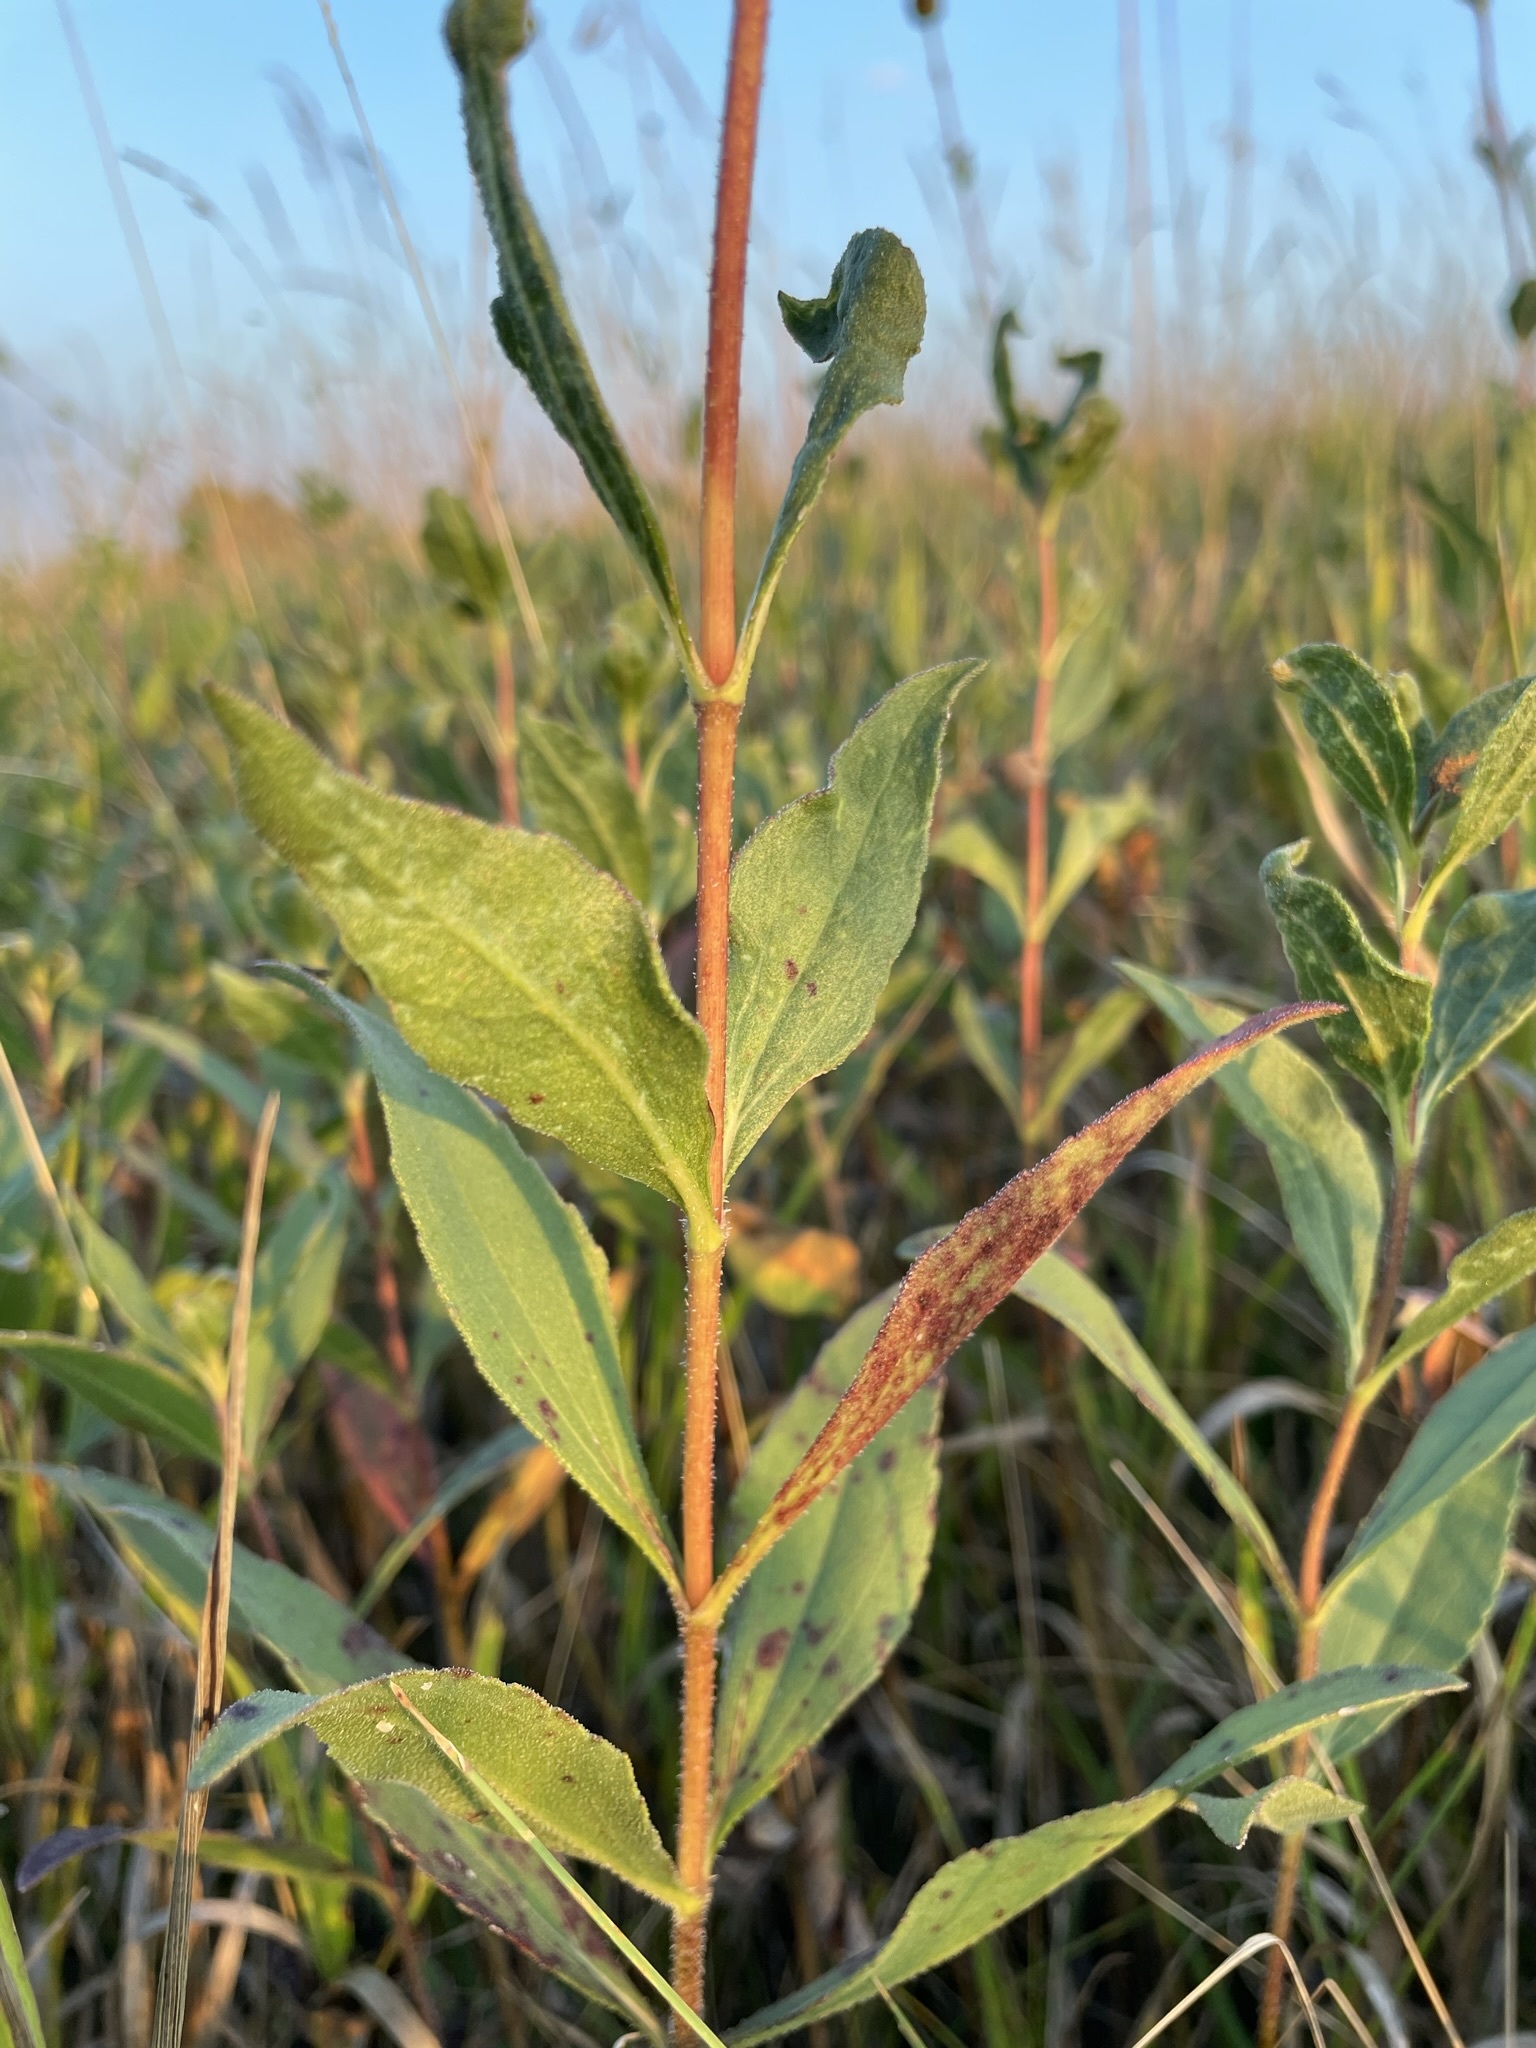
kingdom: Plantae
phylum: Tracheophyta
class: Magnoliopsida
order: Asterales
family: Asteraceae
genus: Helianthus
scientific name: Helianthus pauciflorus
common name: Stiff sunflower
